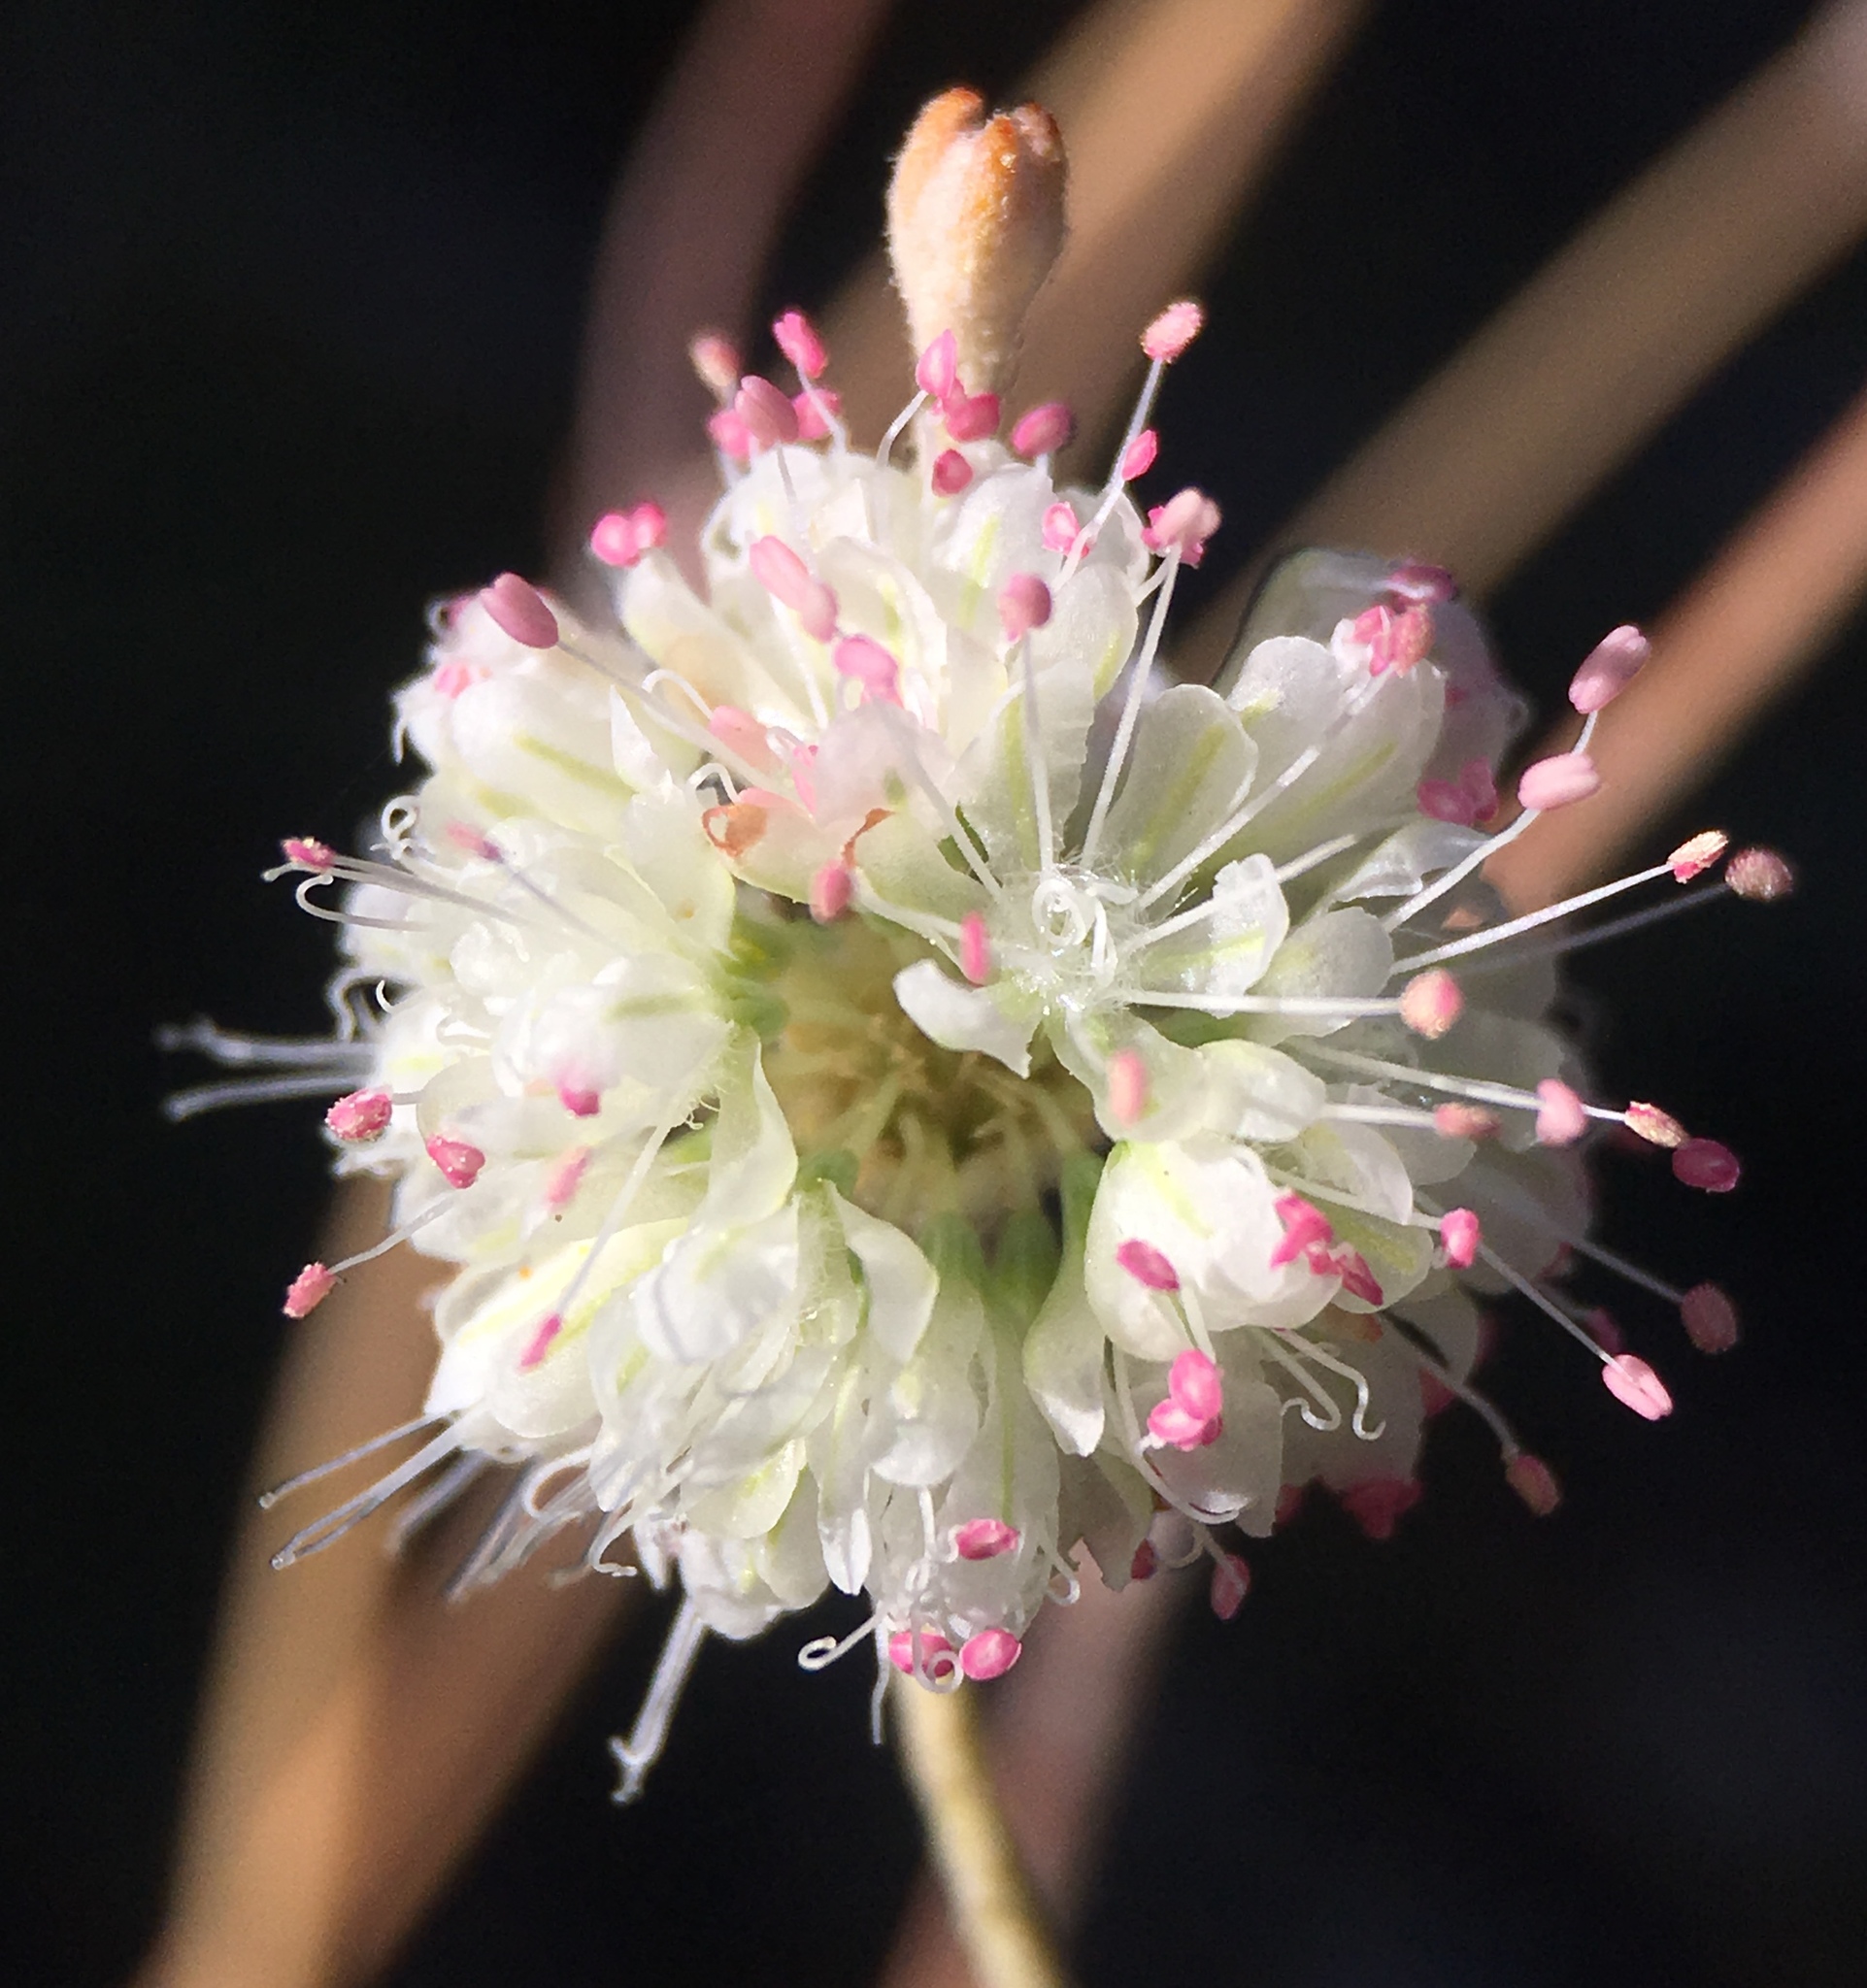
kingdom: Plantae
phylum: Tracheophyta
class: Magnoliopsida
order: Caryophyllales
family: Polygonaceae
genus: Eriogonum
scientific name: Eriogonum mensicola
